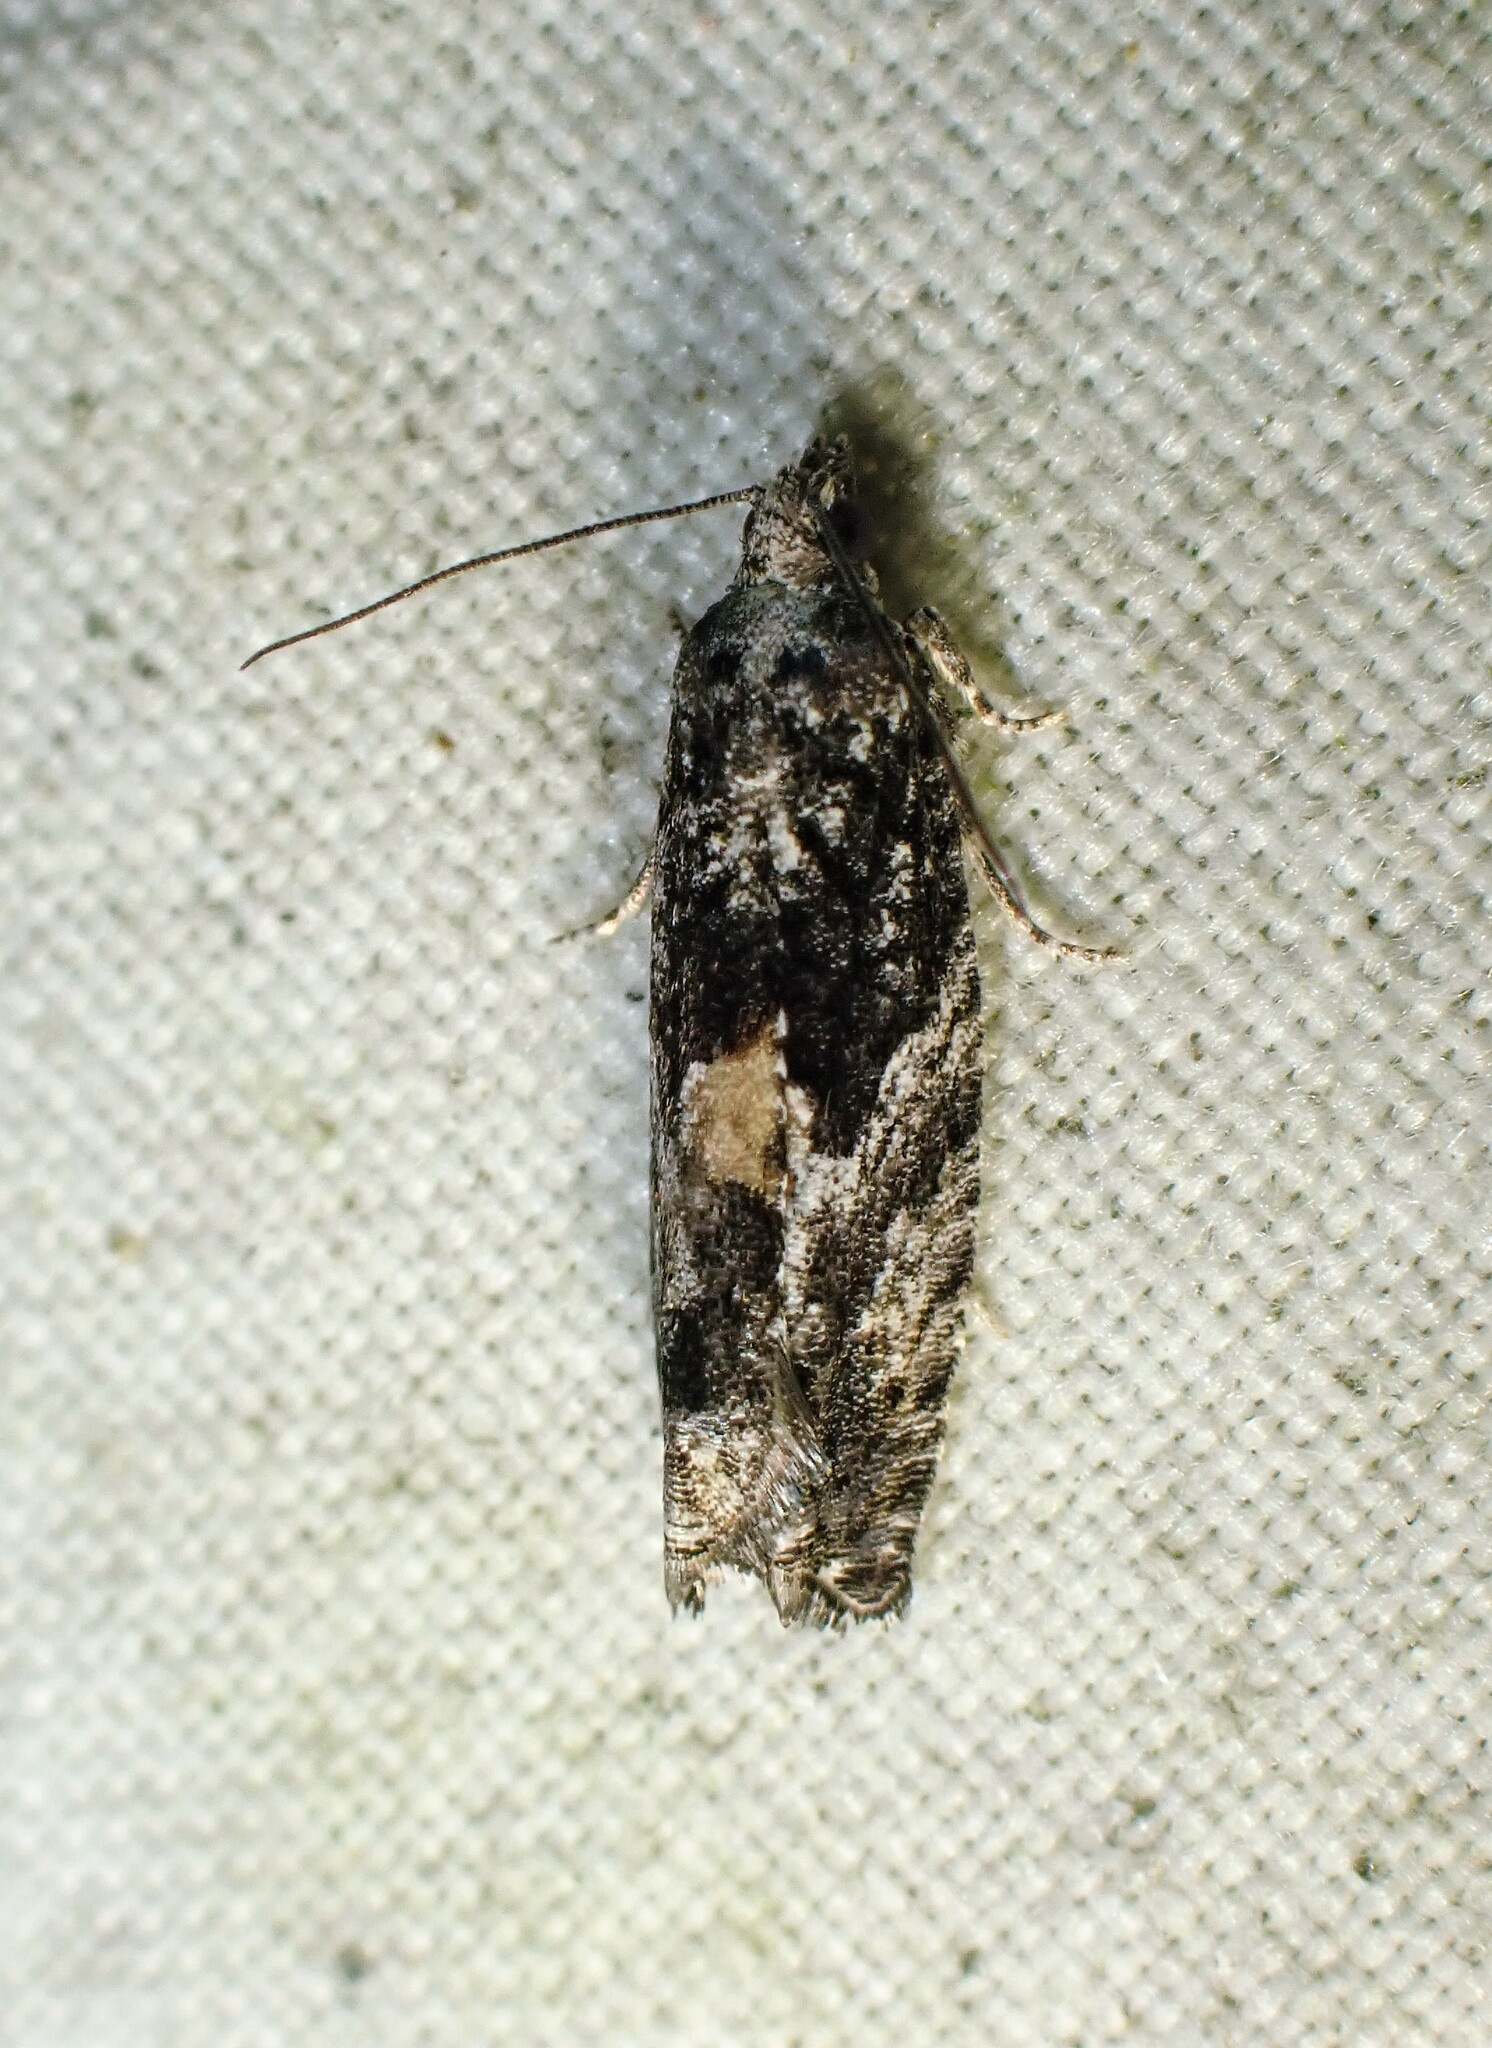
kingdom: Animalia
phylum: Arthropoda
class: Insecta
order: Lepidoptera
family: Tortricidae
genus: Epinotia
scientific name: Epinotia nisella
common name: Grey poplar bell
